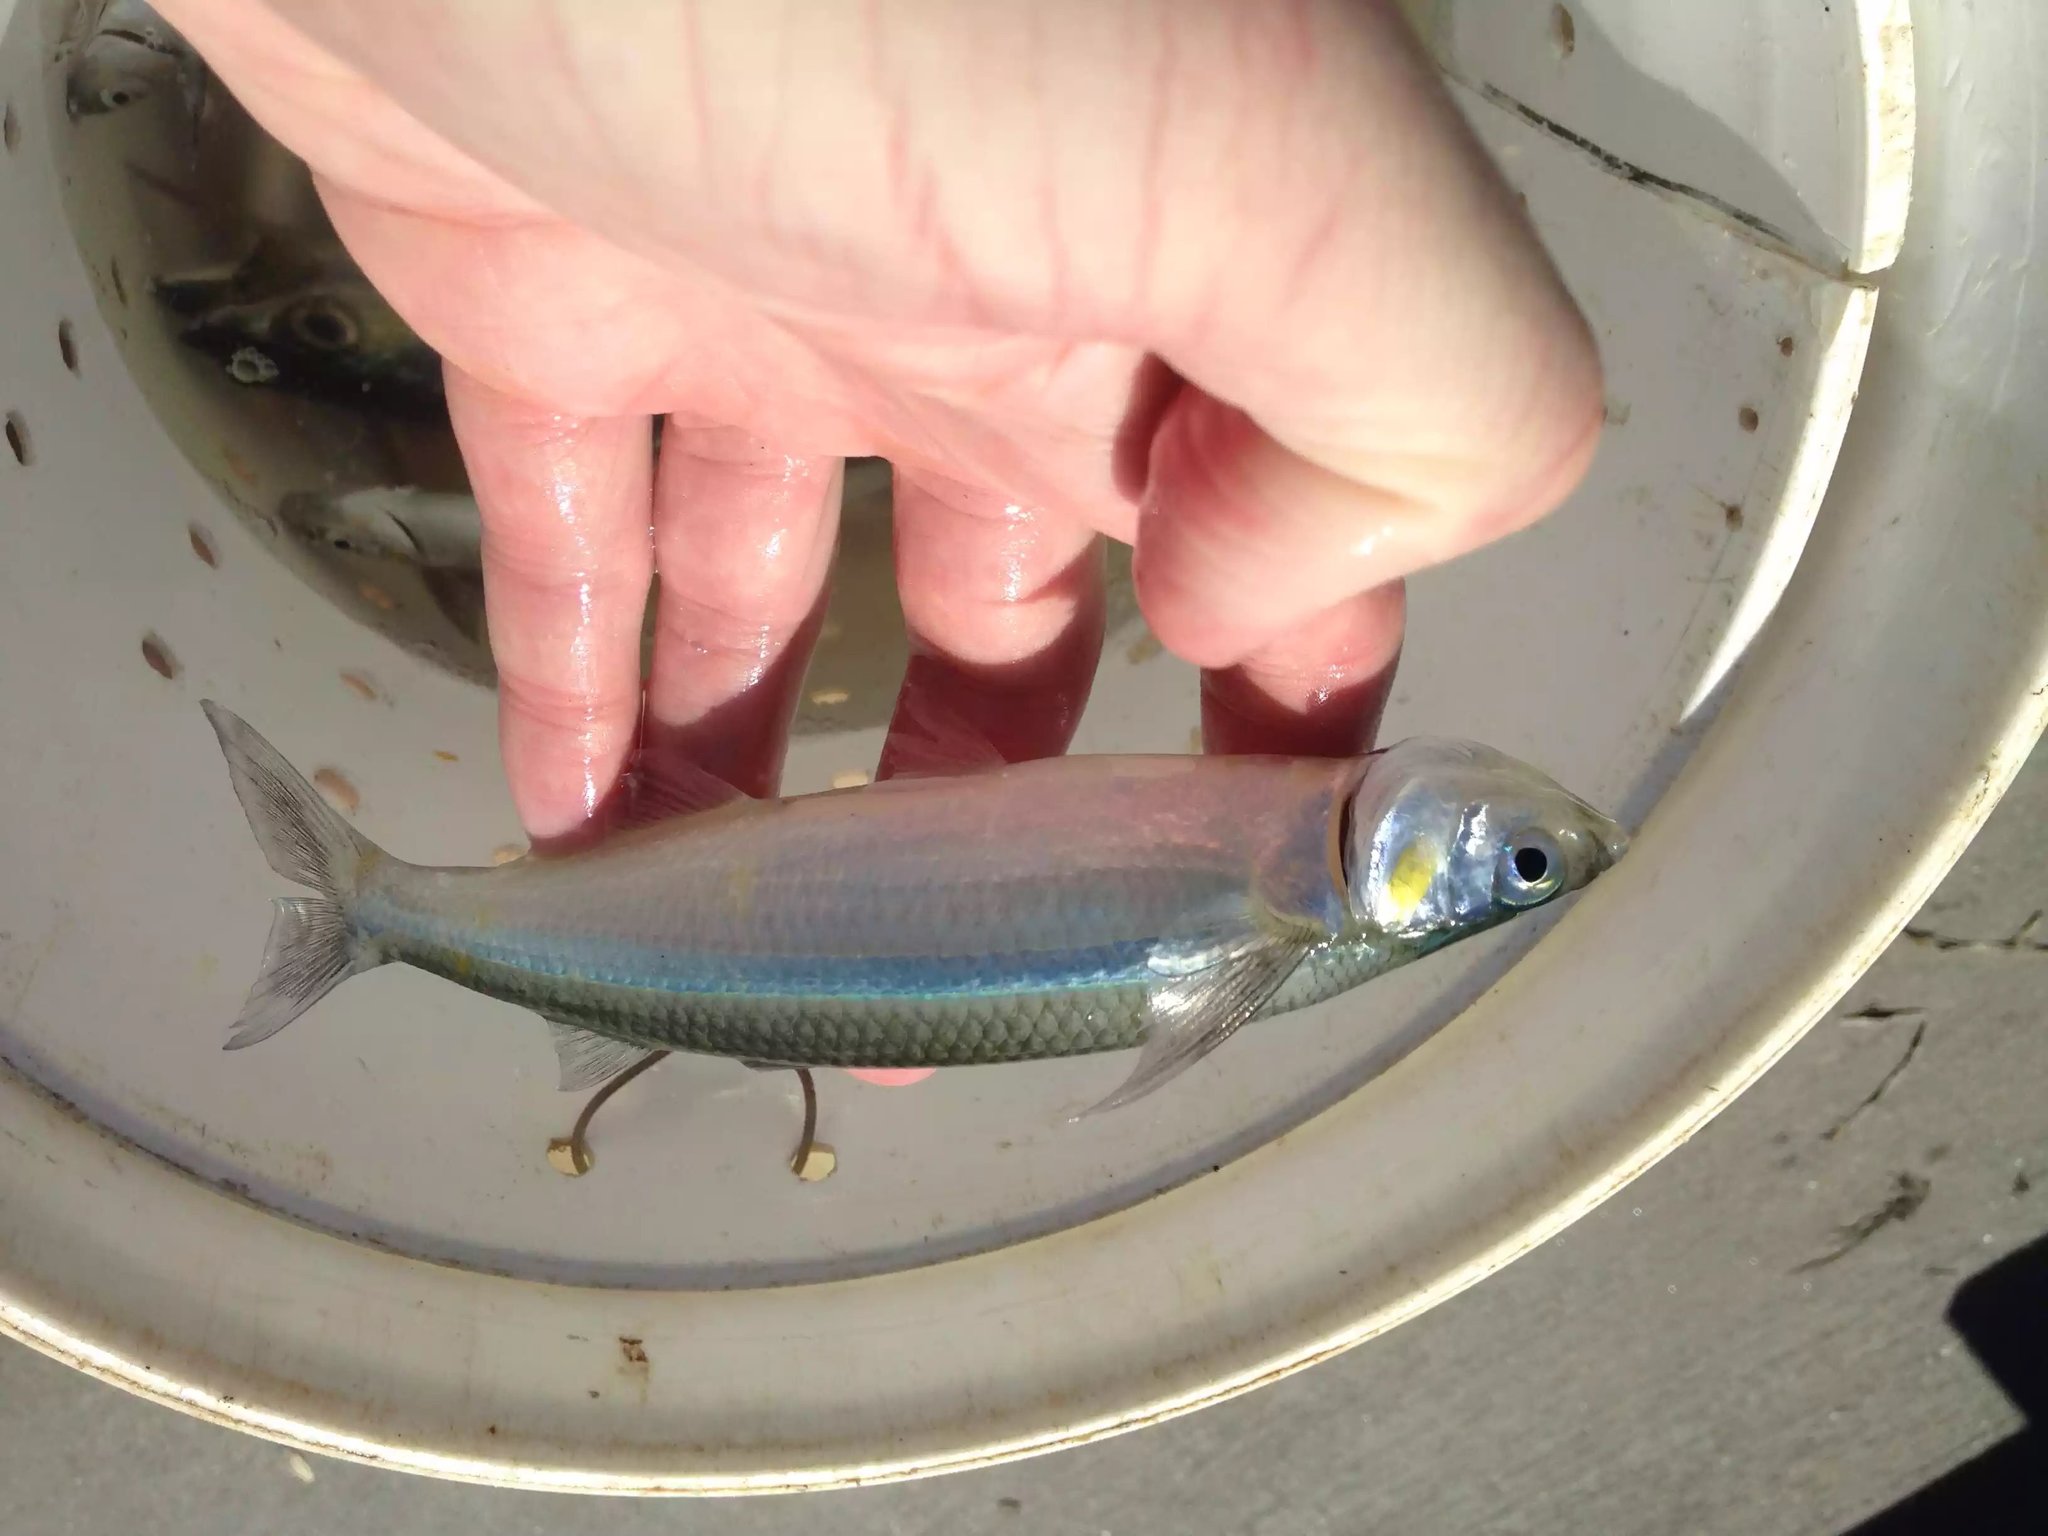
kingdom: Animalia
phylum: Chordata
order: Atheriniformes
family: Atherinopsidae
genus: Atherinopsis
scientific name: Atherinopsis californiensis
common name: Jack silverside
